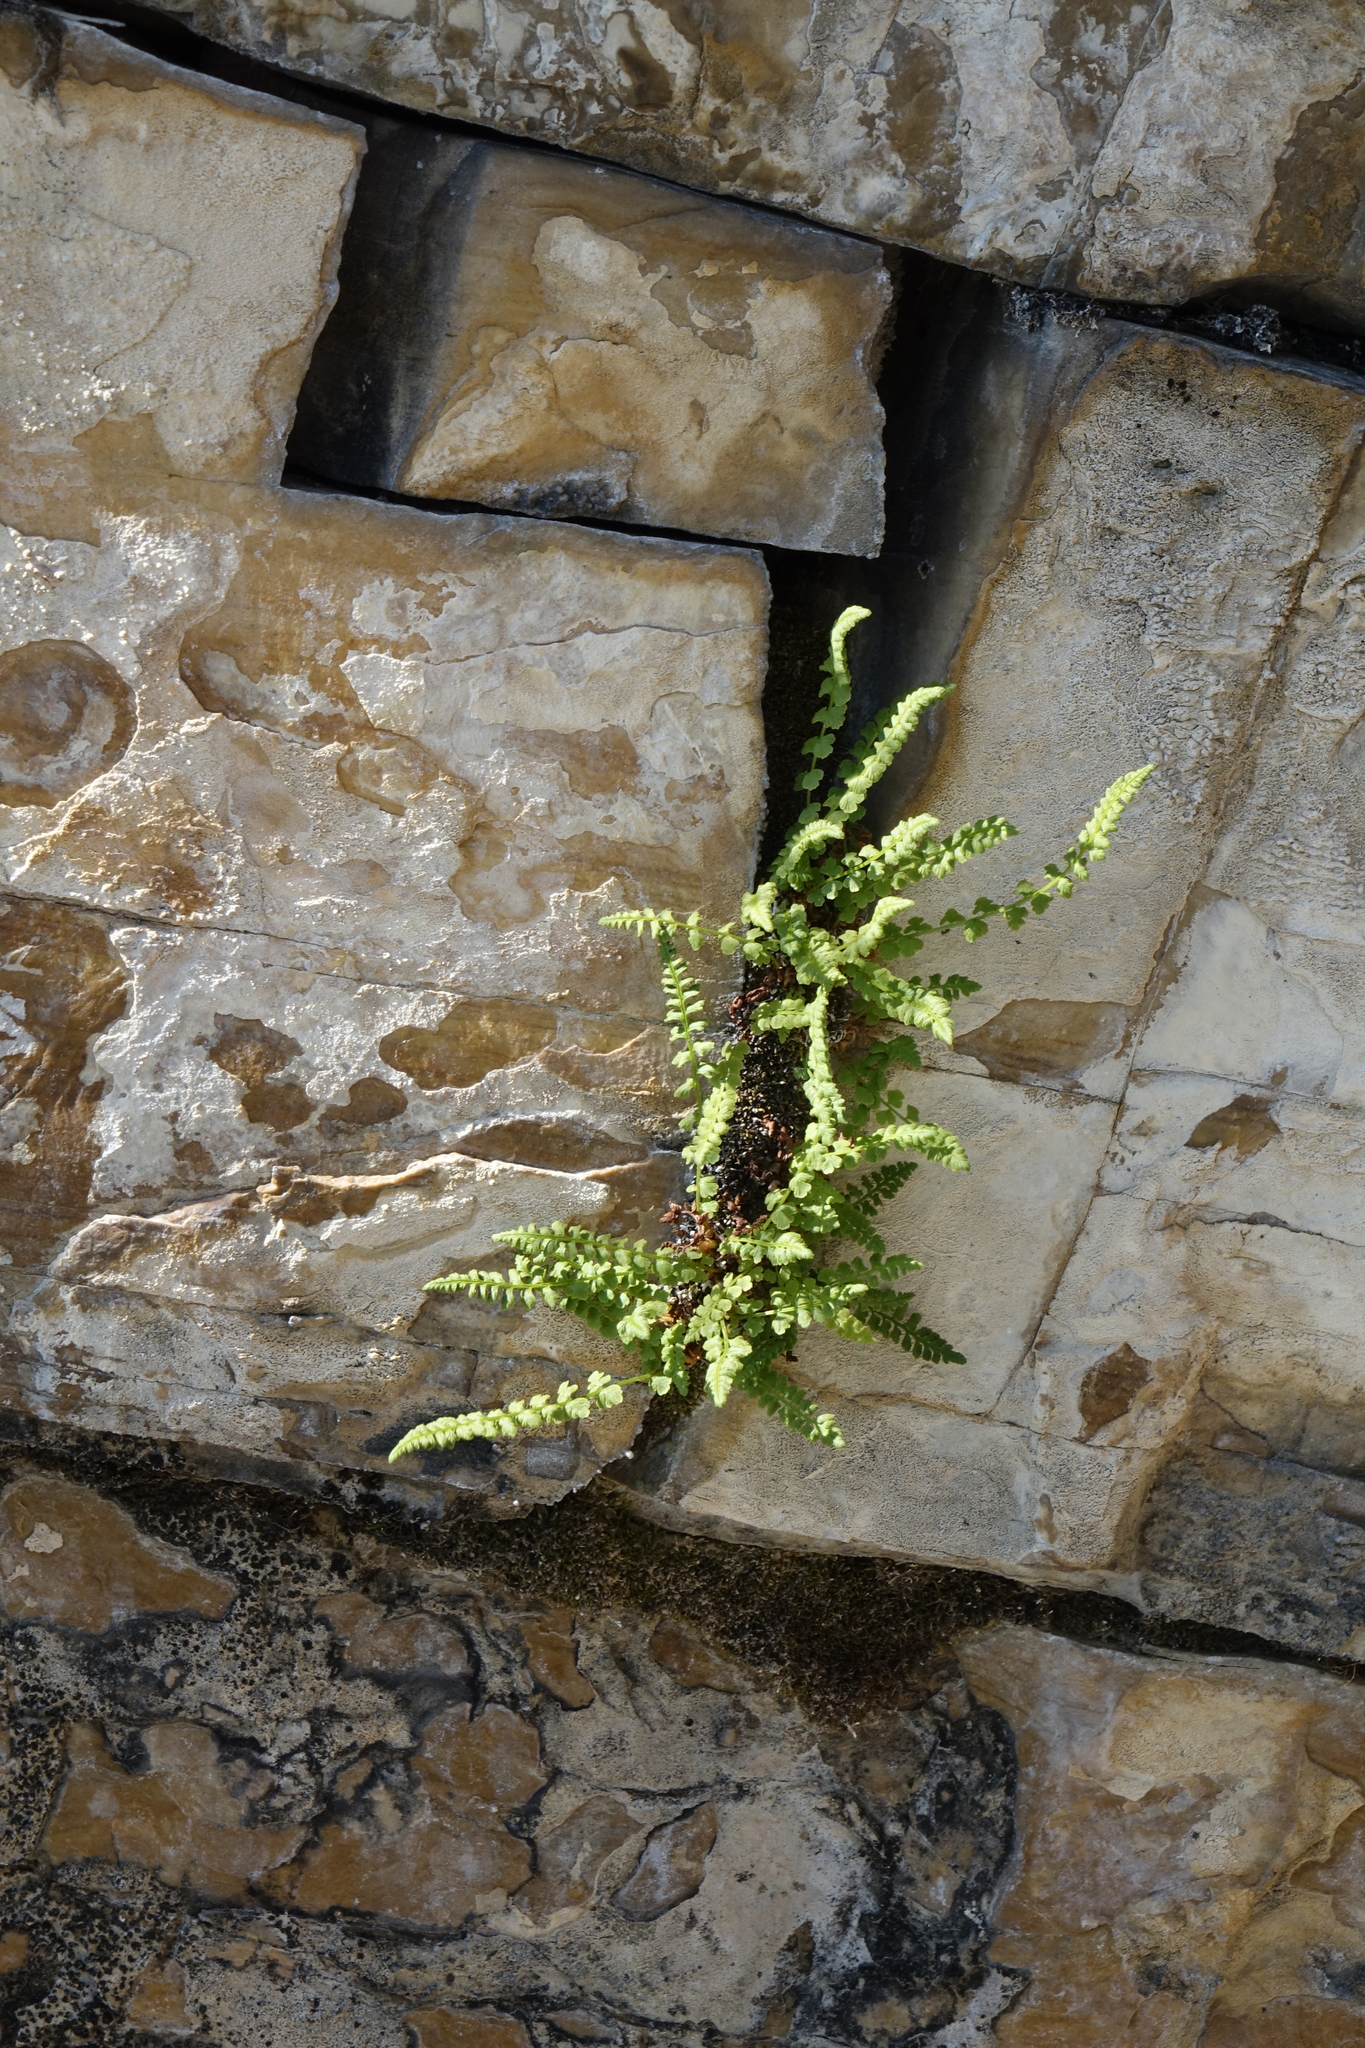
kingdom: Plantae
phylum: Tracheophyta
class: Polypodiopsida
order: Polypodiales
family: Woodsiaceae
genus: Woodsia
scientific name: Woodsia glabella
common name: Smooth woodsia
